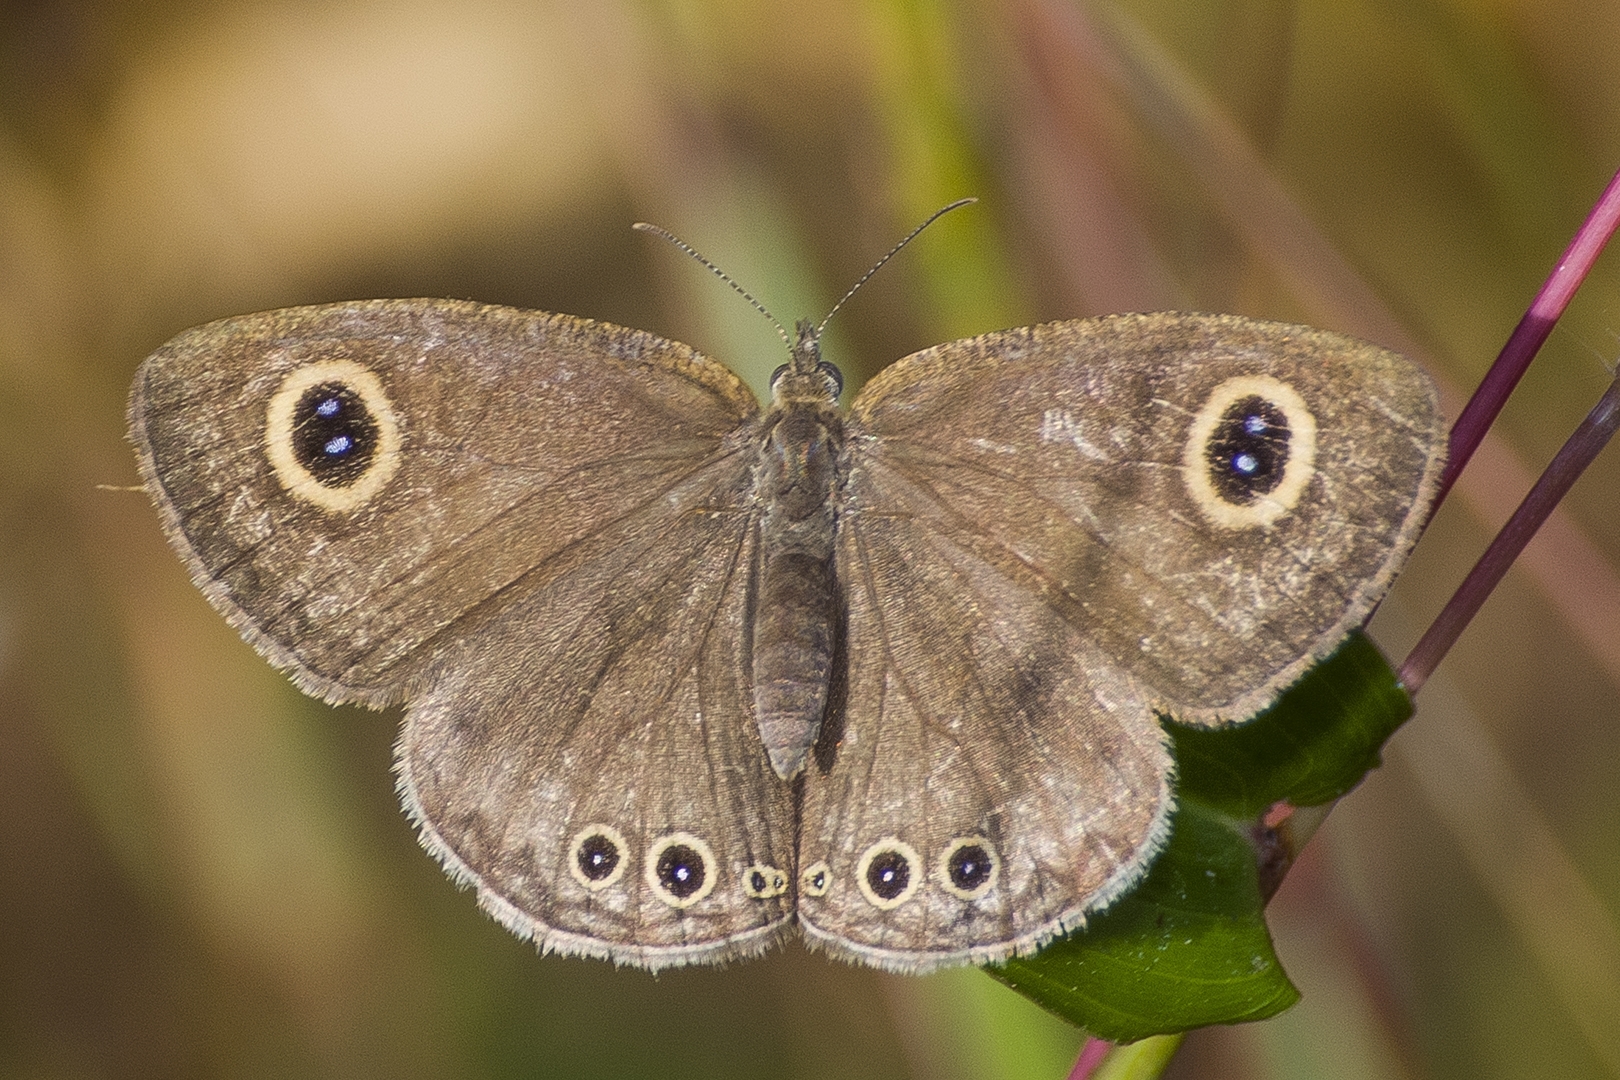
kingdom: Animalia
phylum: Arthropoda
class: Insecta
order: Lepidoptera
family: Nymphalidae
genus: Ypthima
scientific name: Ypthima huebneri
